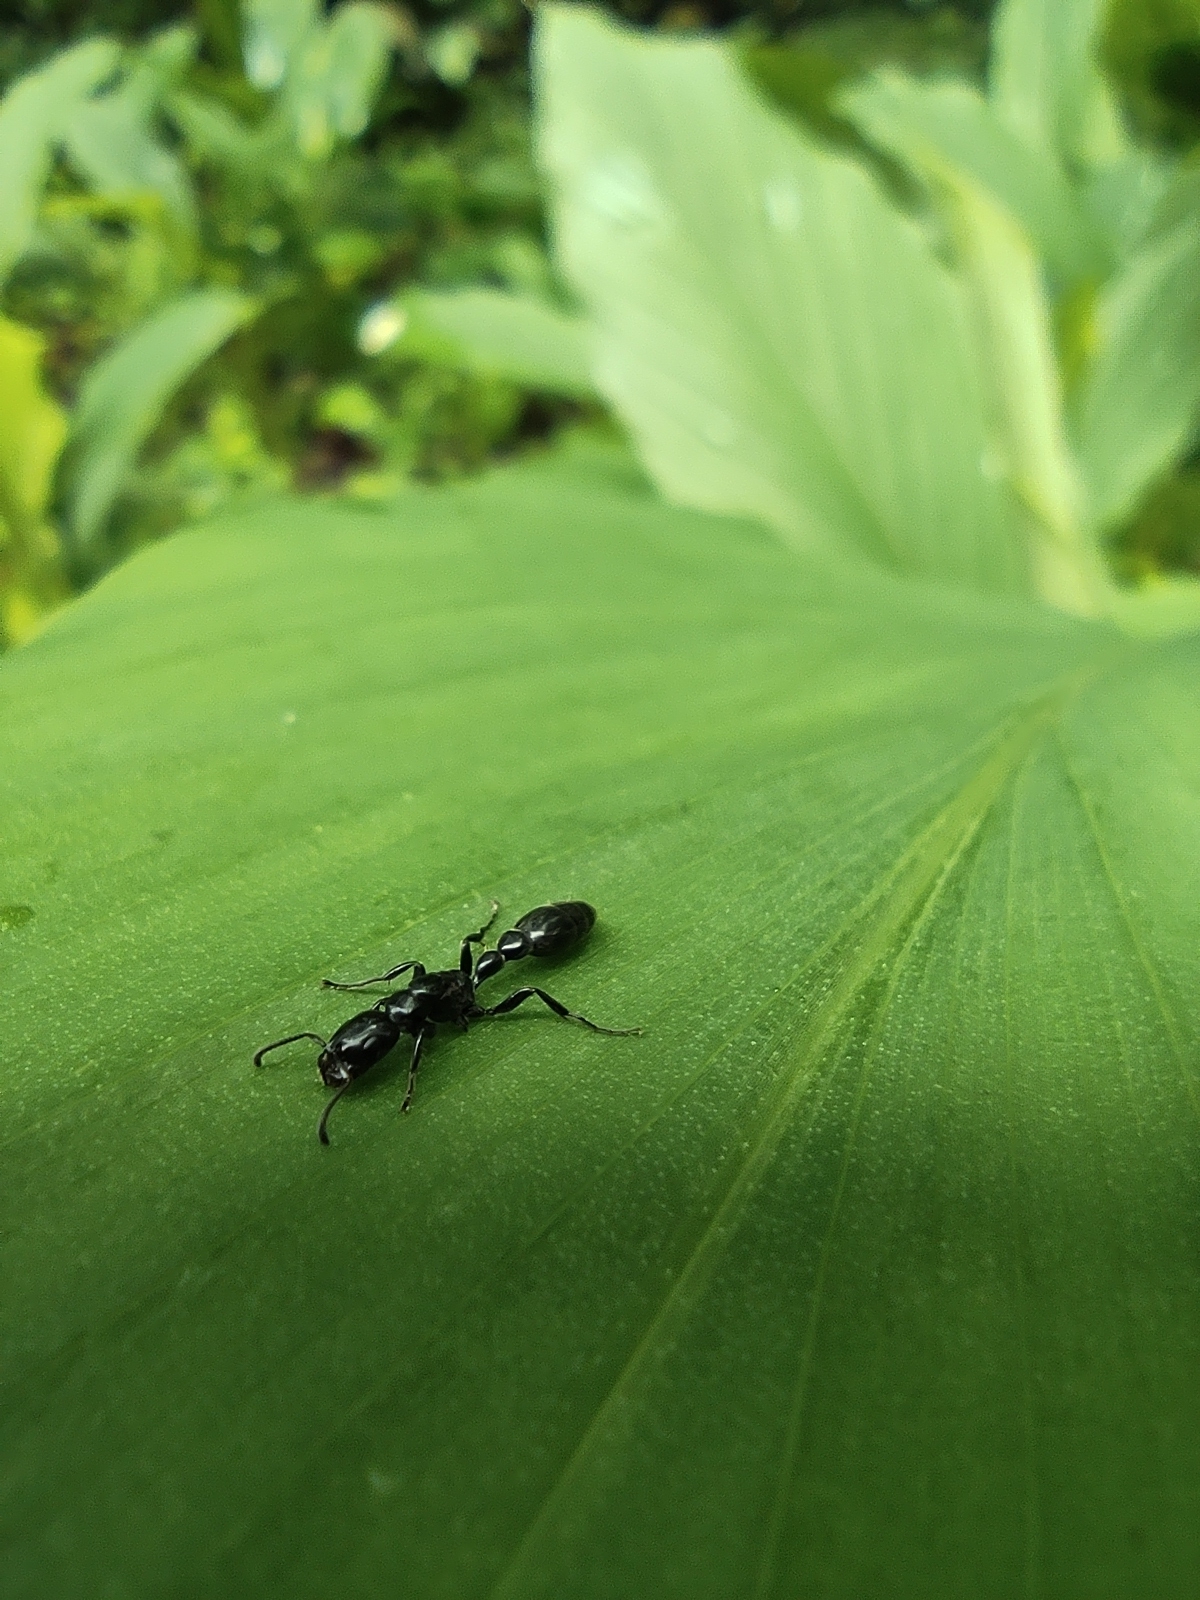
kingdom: Animalia
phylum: Arthropoda
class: Insecta
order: Hymenoptera
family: Formicidae
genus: Tetraponera
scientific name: Tetraponera nigra
